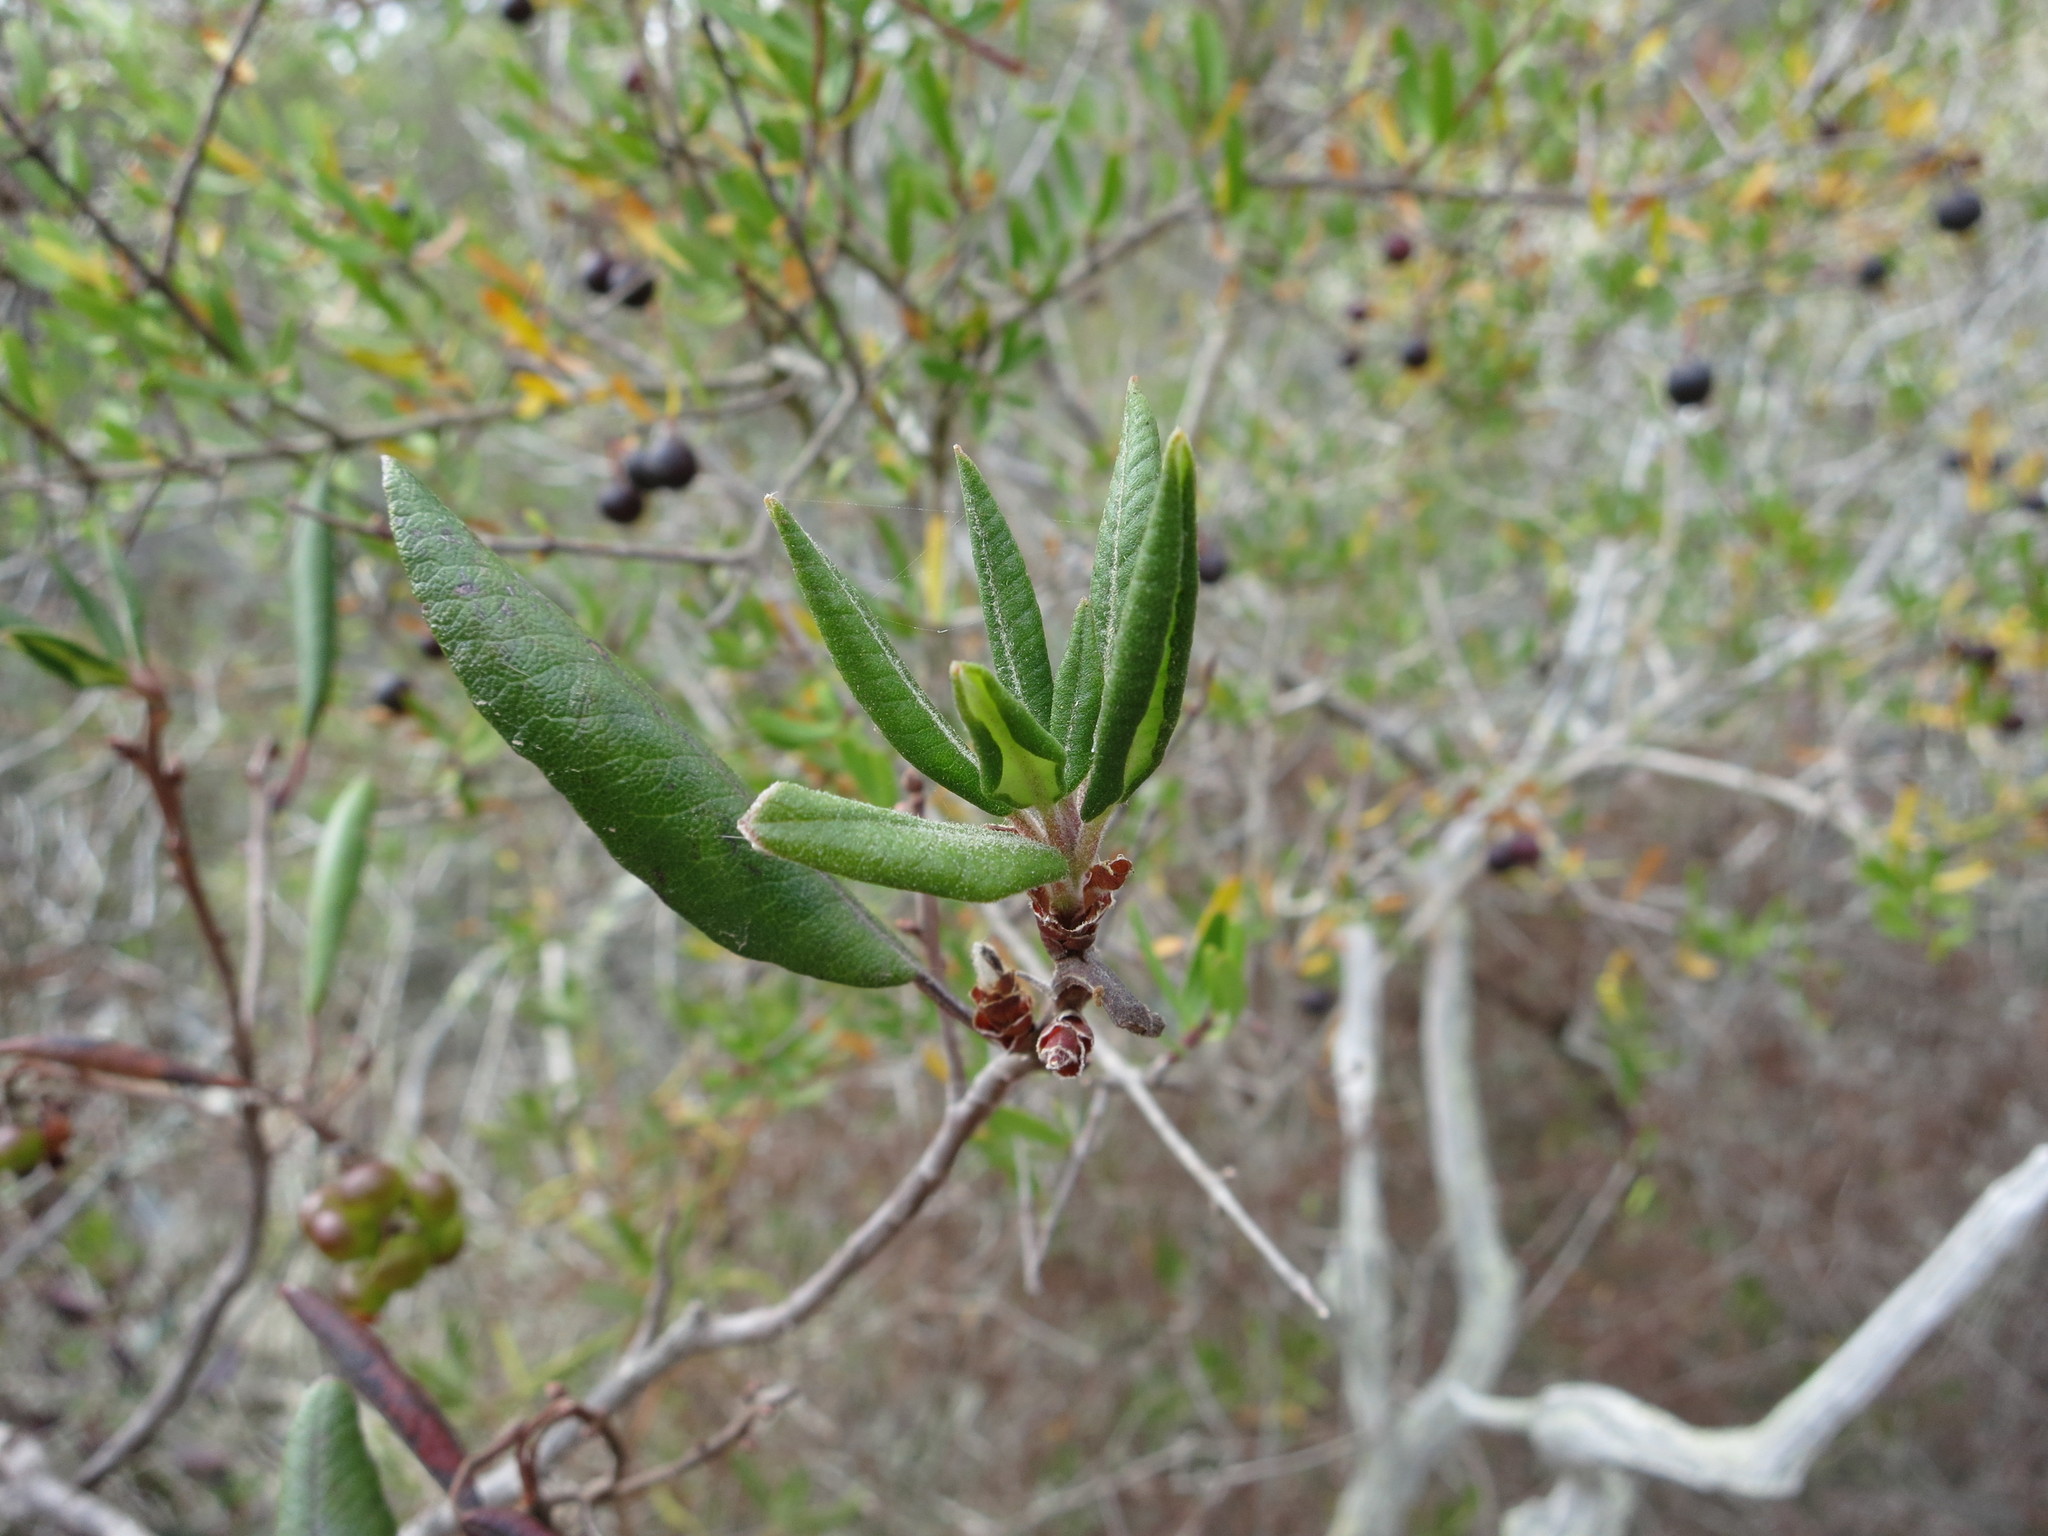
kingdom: Plantae
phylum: Tracheophyta
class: Magnoliopsida
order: Ericales
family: Ericaceae
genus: Arctostaphylos
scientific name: Arctostaphylos bicolor
